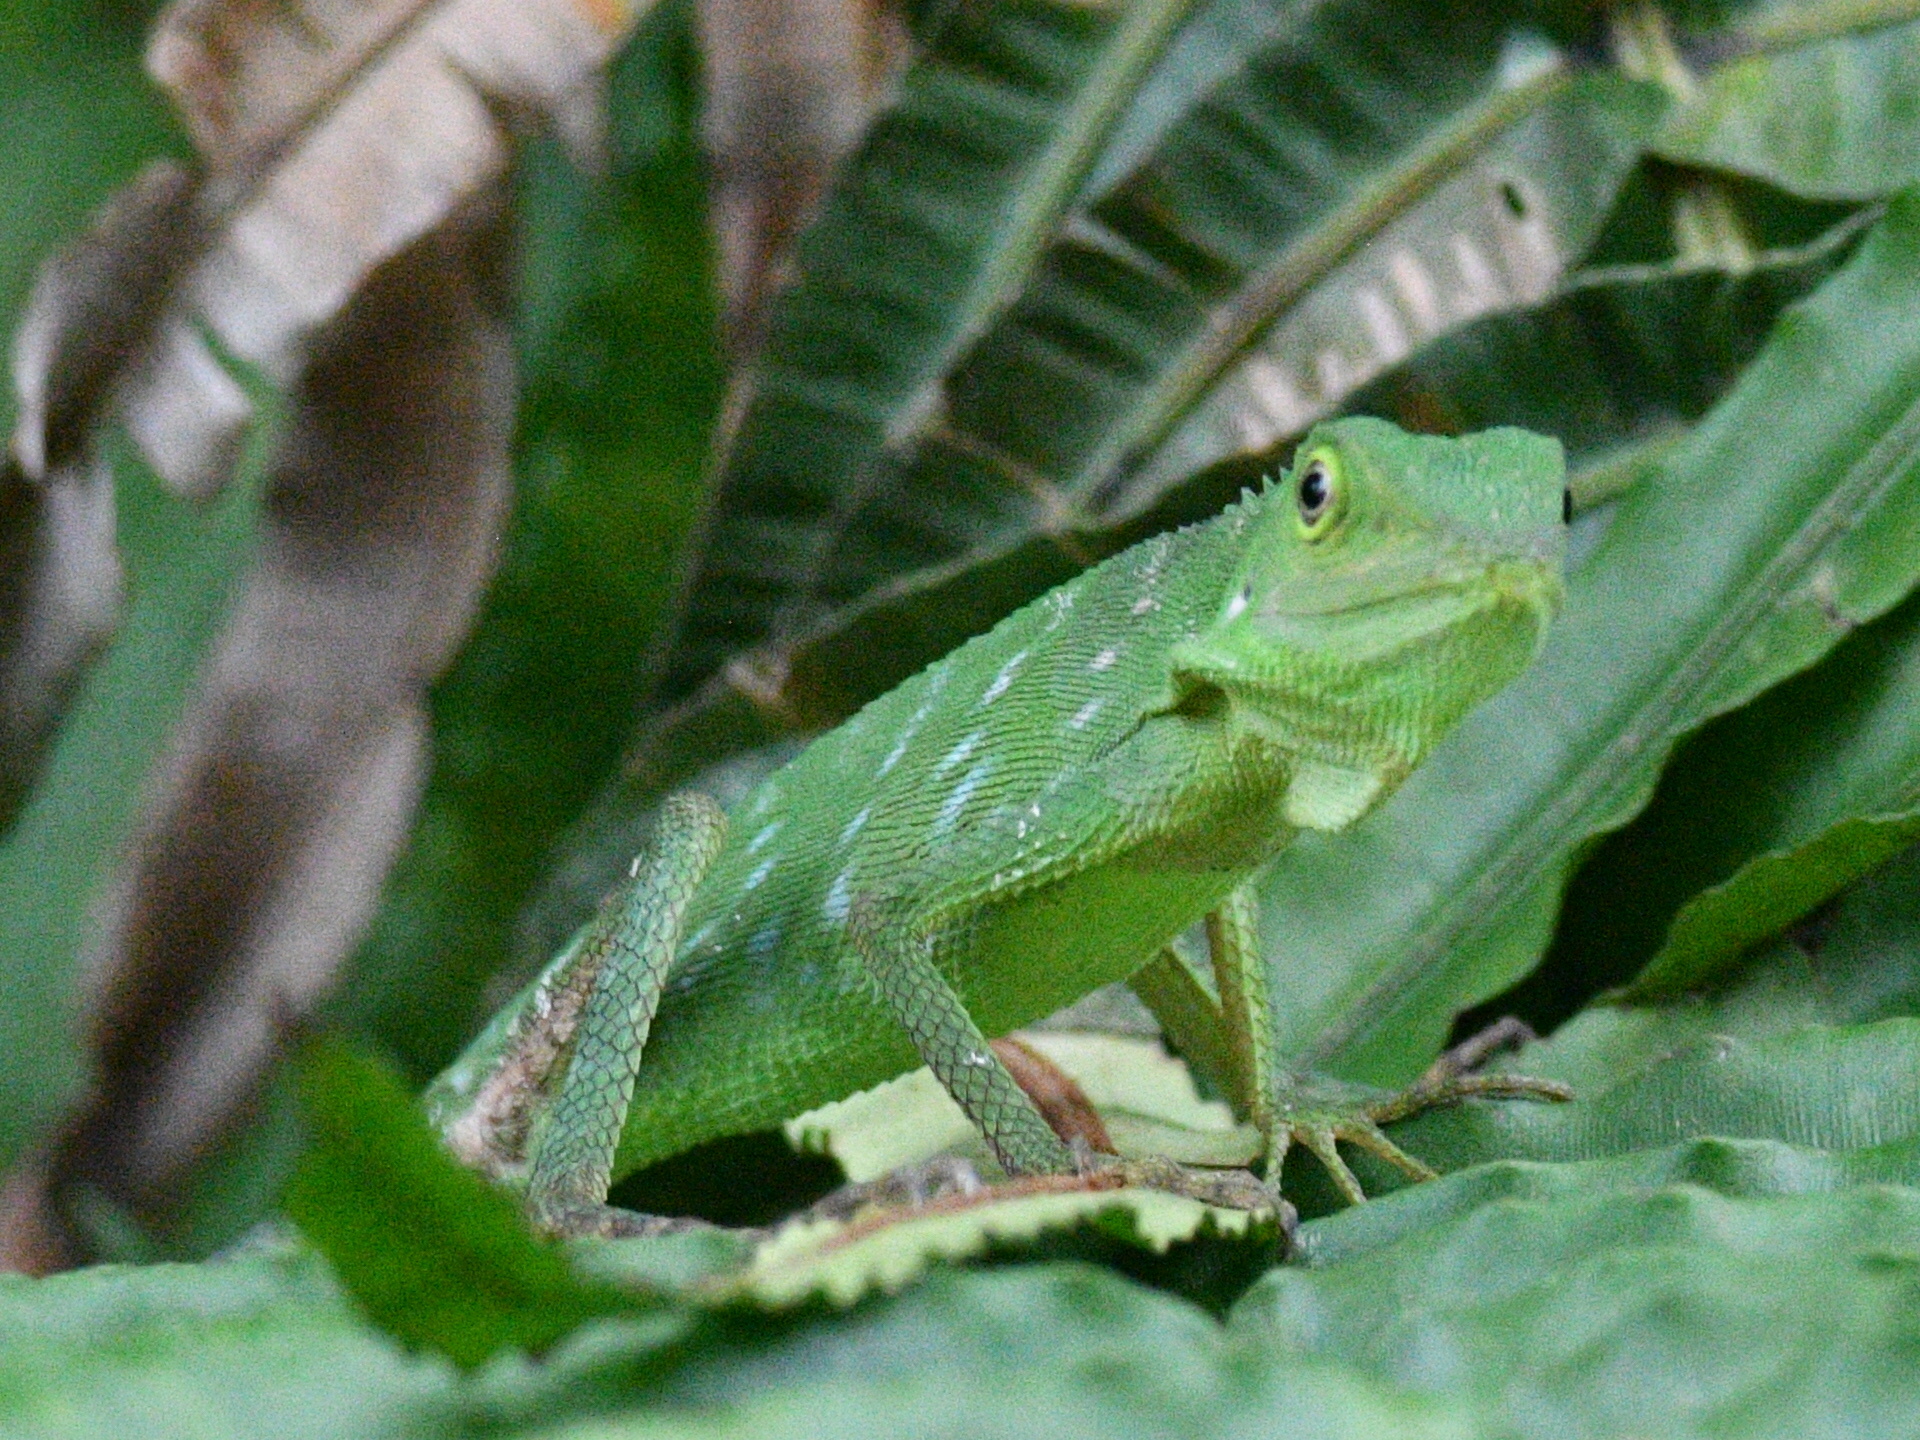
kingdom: Animalia
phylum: Chordata
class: Squamata
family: Agamidae
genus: Bronchocela
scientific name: Bronchocela cristatella
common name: Green crested lizard
